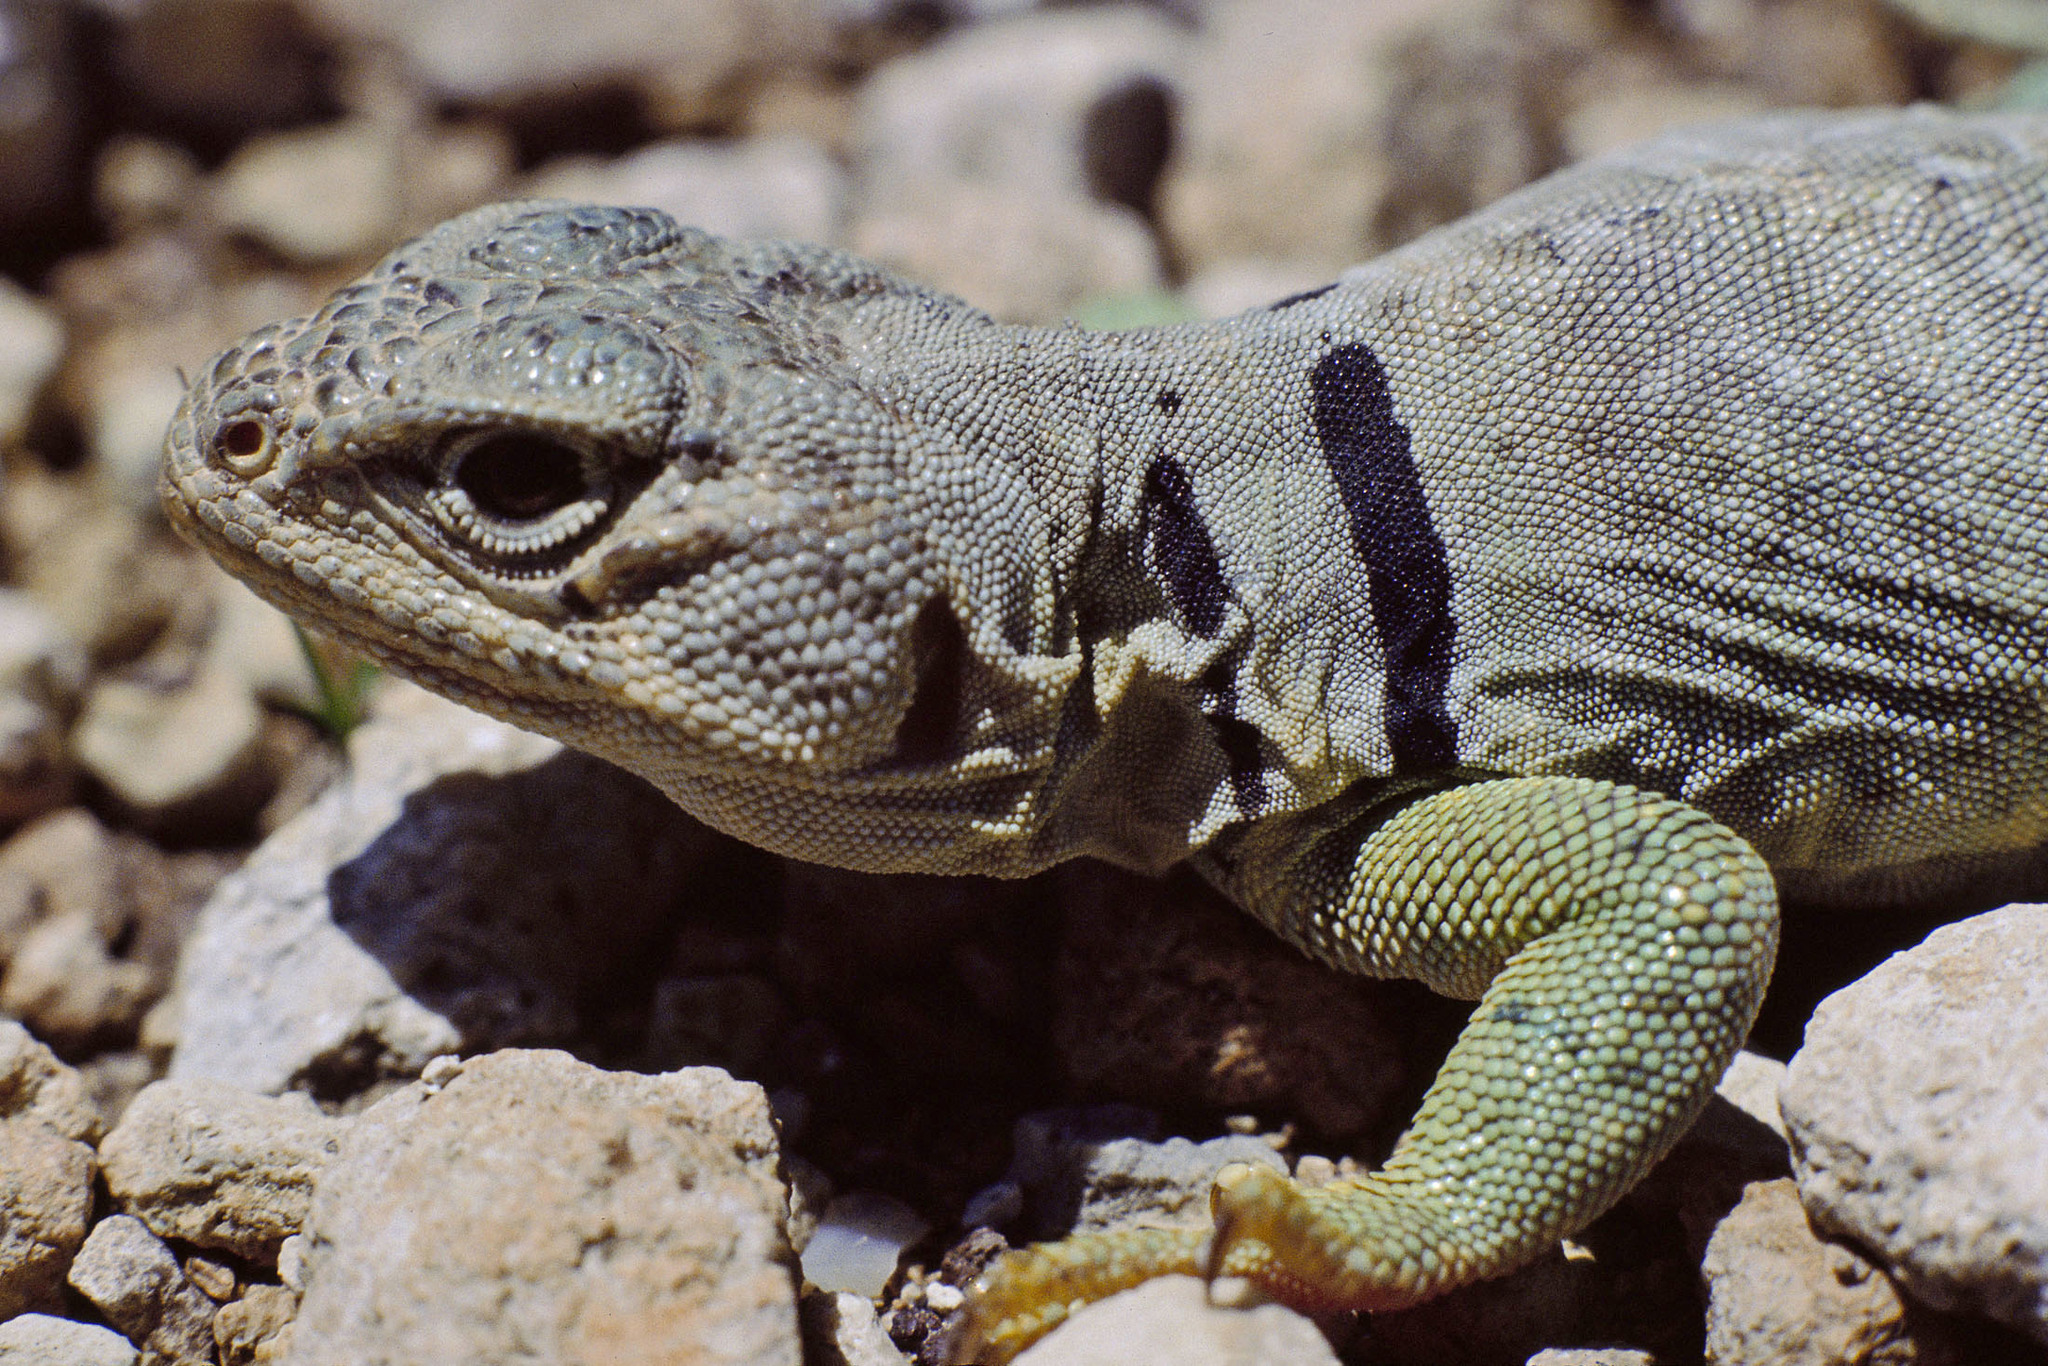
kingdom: Animalia
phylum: Chordata
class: Squamata
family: Crotaphytidae
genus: Crotaphytus
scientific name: Crotaphytus collaris
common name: Collared lizard
